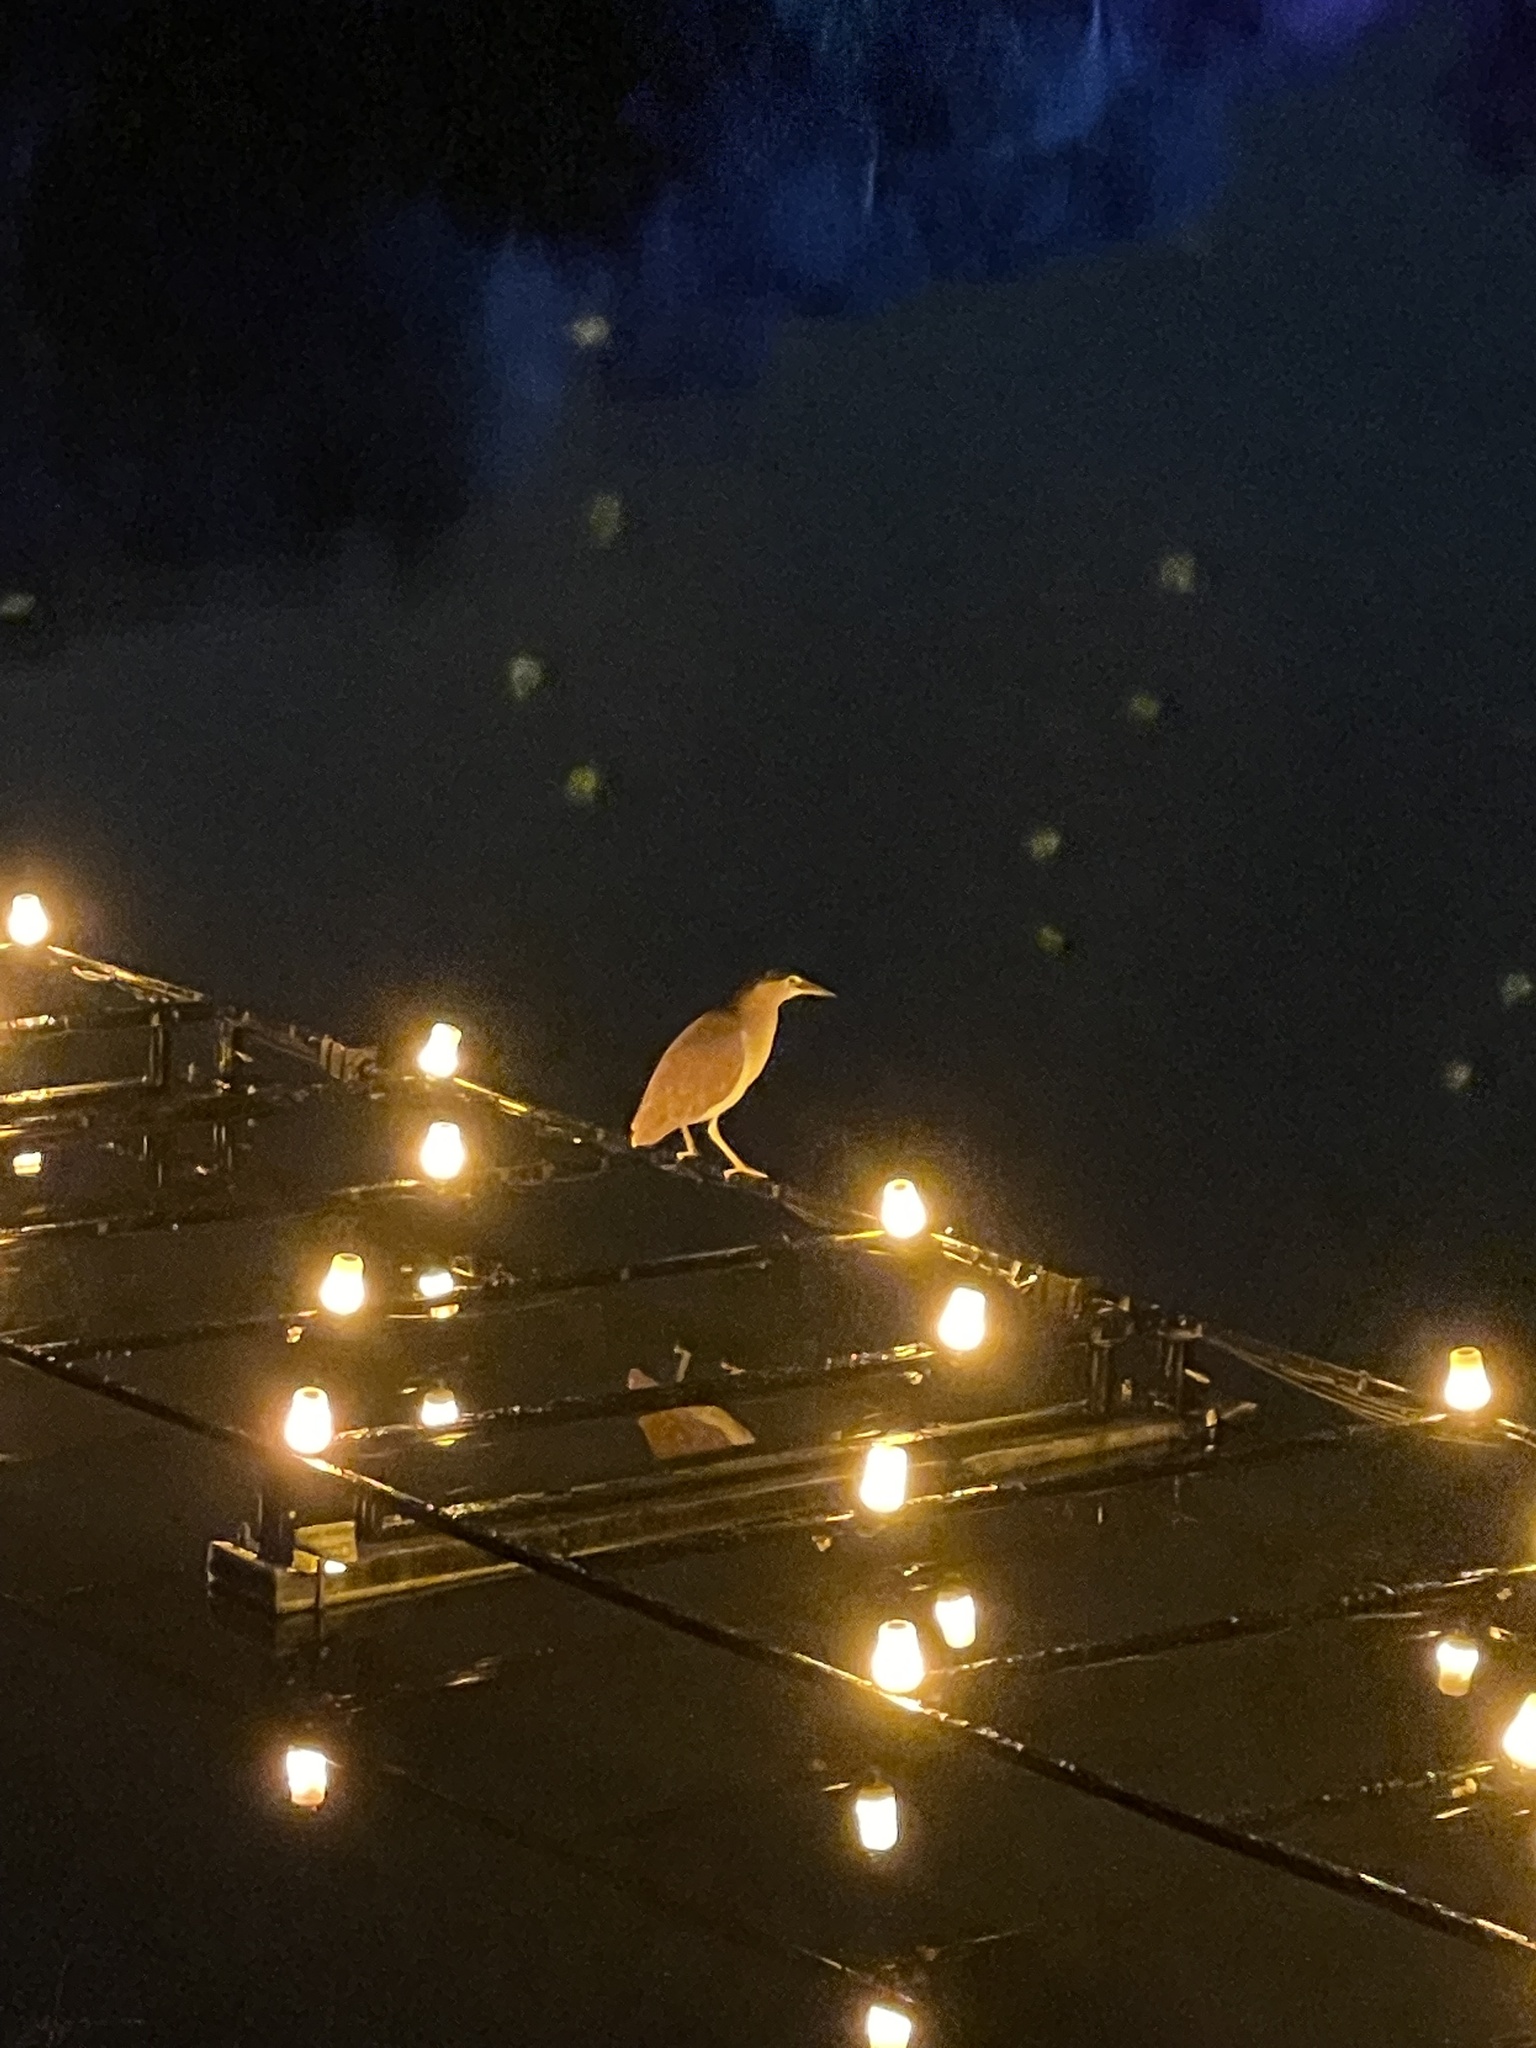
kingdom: Animalia
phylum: Chordata
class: Aves
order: Pelecaniformes
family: Ardeidae
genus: Nycticorax
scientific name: Nycticorax caledonicus
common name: Rufous night-heron
